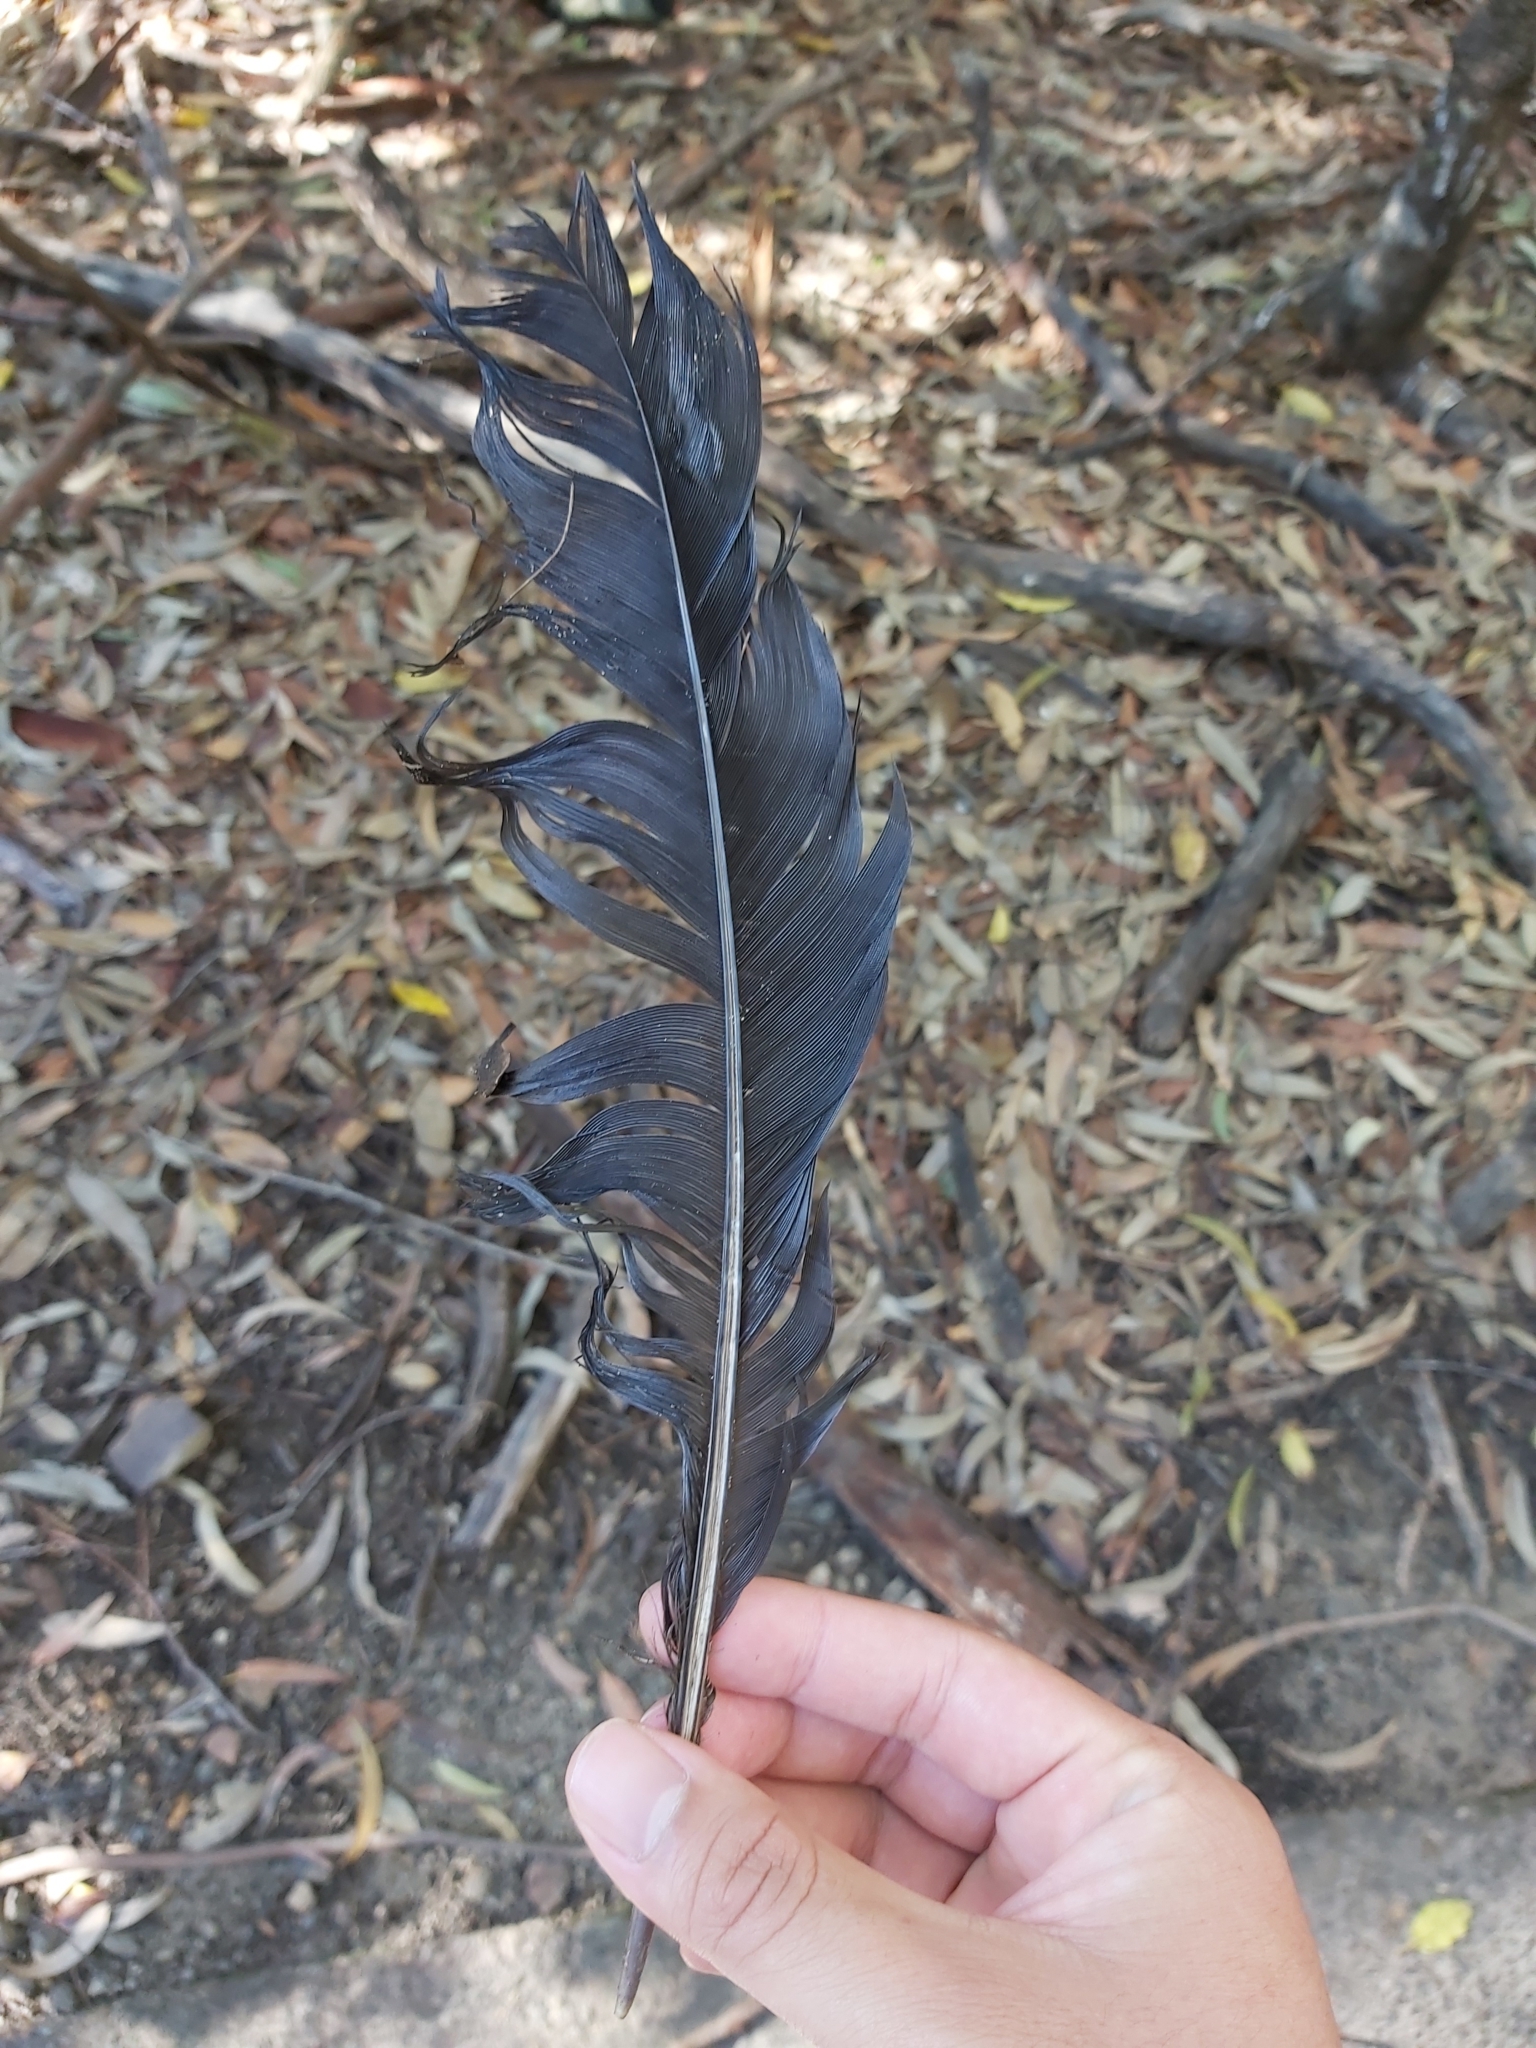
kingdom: Animalia
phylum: Chordata
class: Aves
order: Galliformes
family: Megapodiidae
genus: Alectura
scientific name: Alectura lathami
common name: Australian brushturkey
